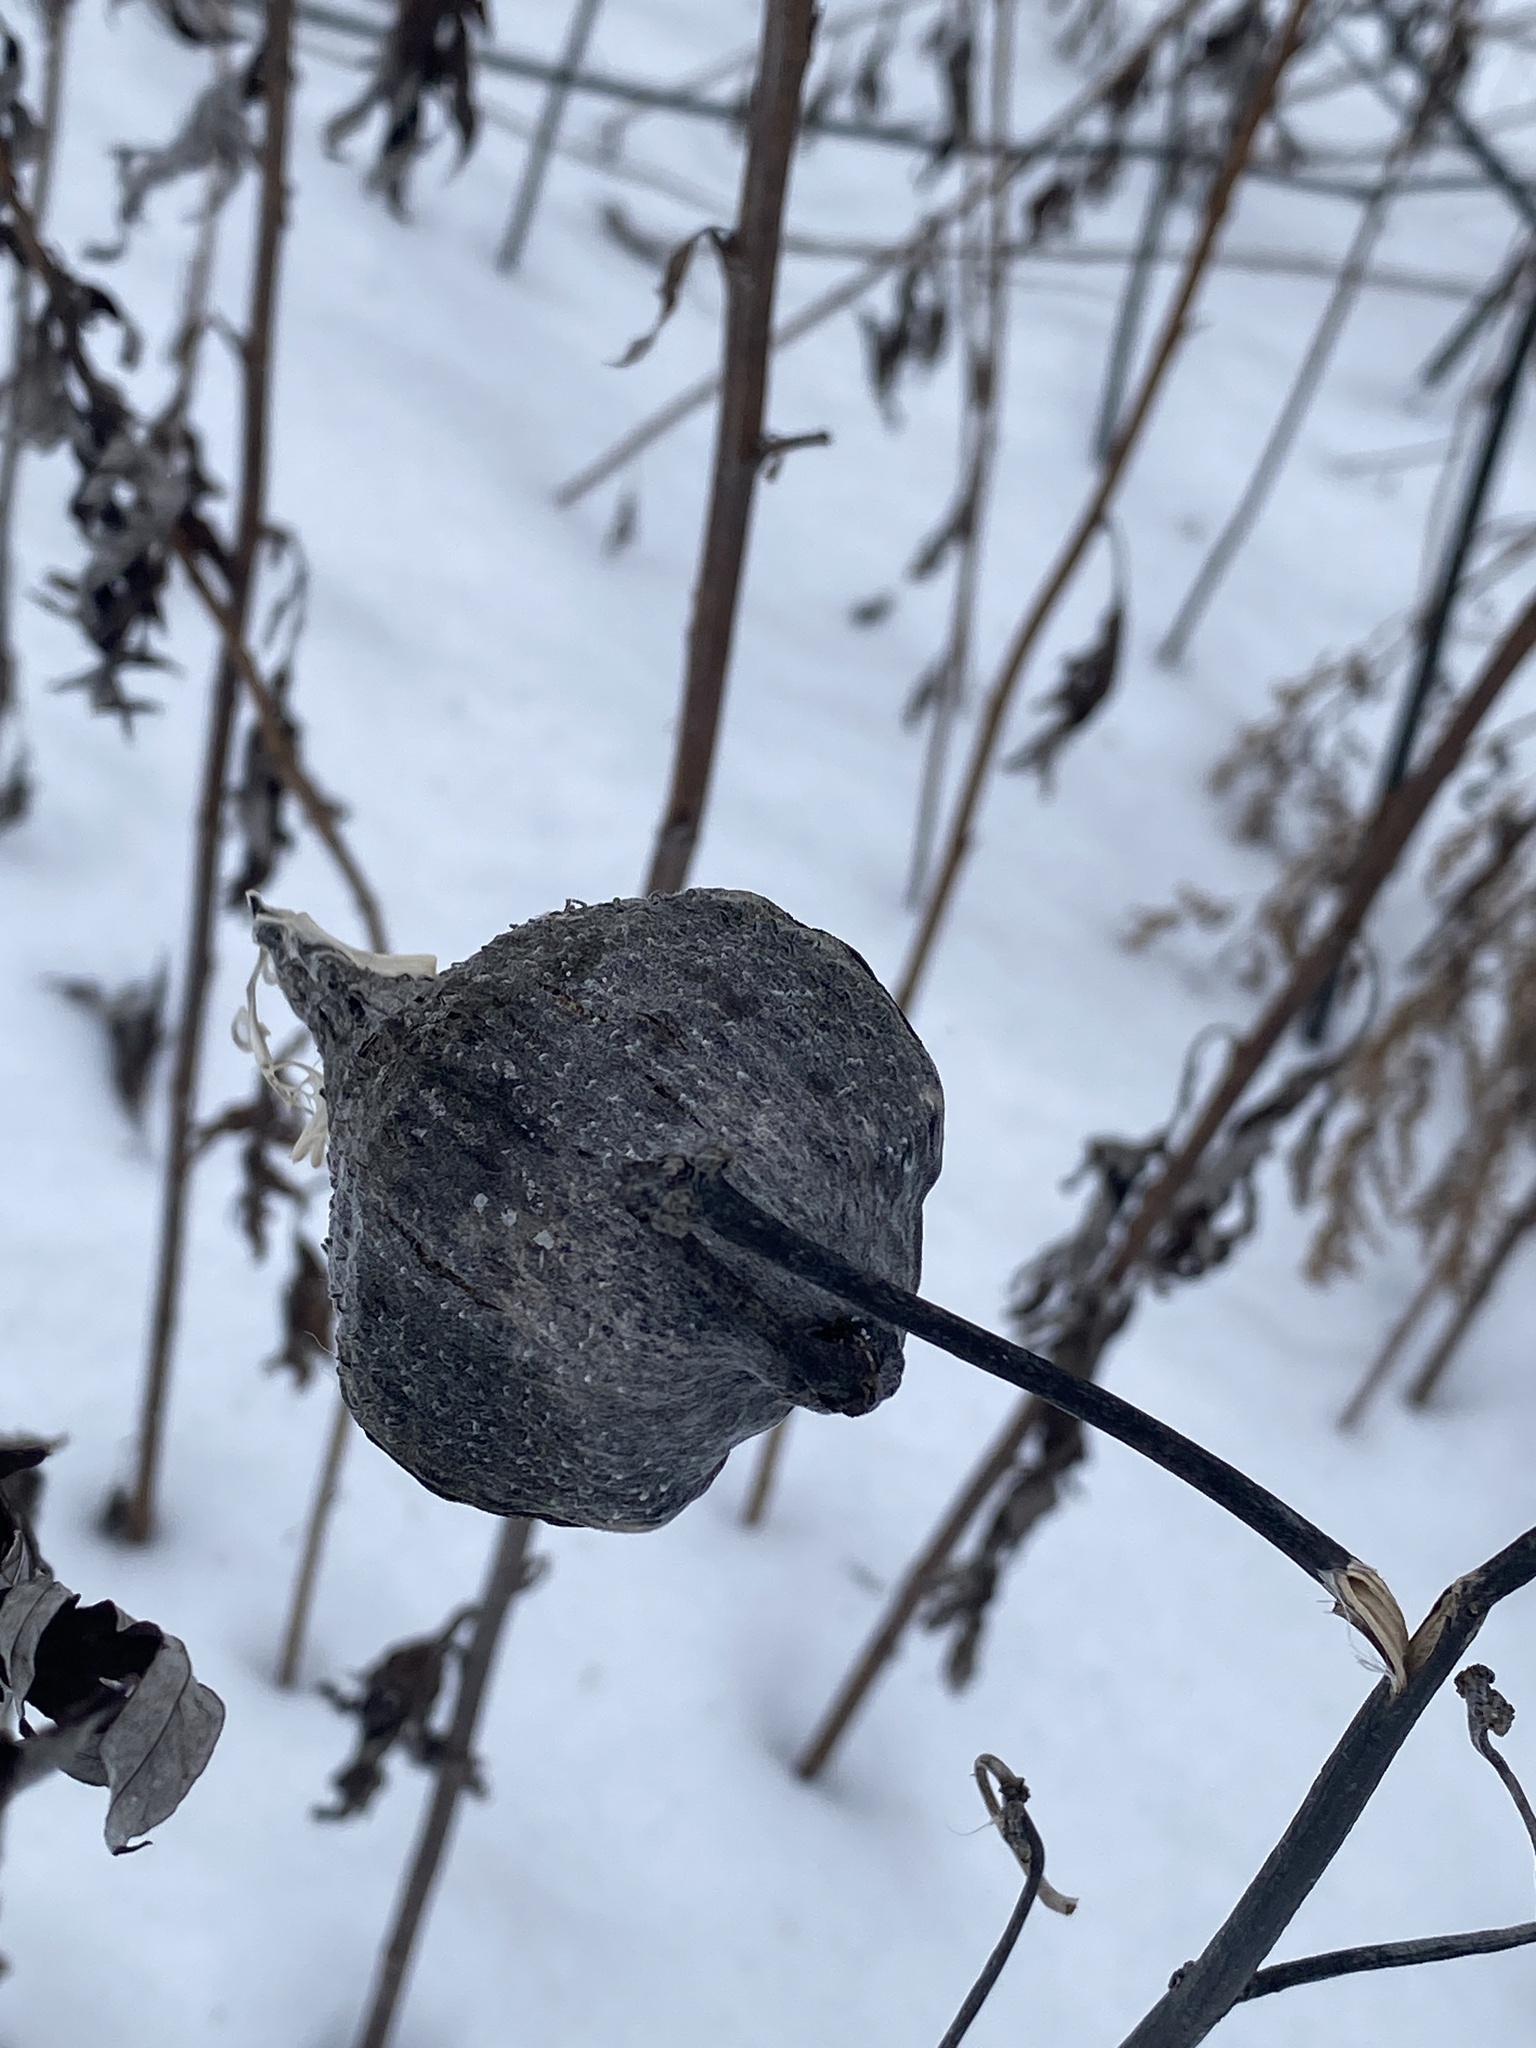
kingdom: Plantae
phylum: Tracheophyta
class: Magnoliopsida
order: Gentianales
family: Apocynaceae
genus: Asclepias
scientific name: Asclepias syriaca
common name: Common milkweed
